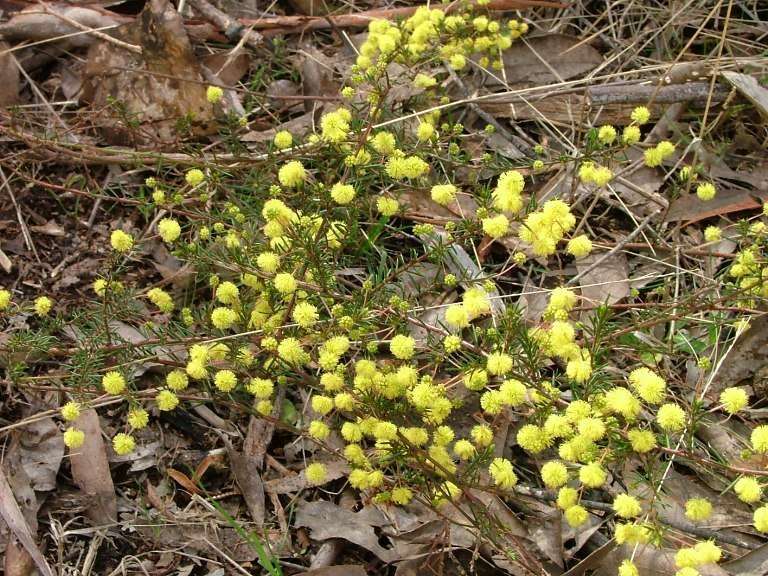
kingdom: Plantae
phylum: Tracheophyta
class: Magnoliopsida
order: Fabales
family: Fabaceae
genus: Acacia
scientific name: Acacia aculeatissima
